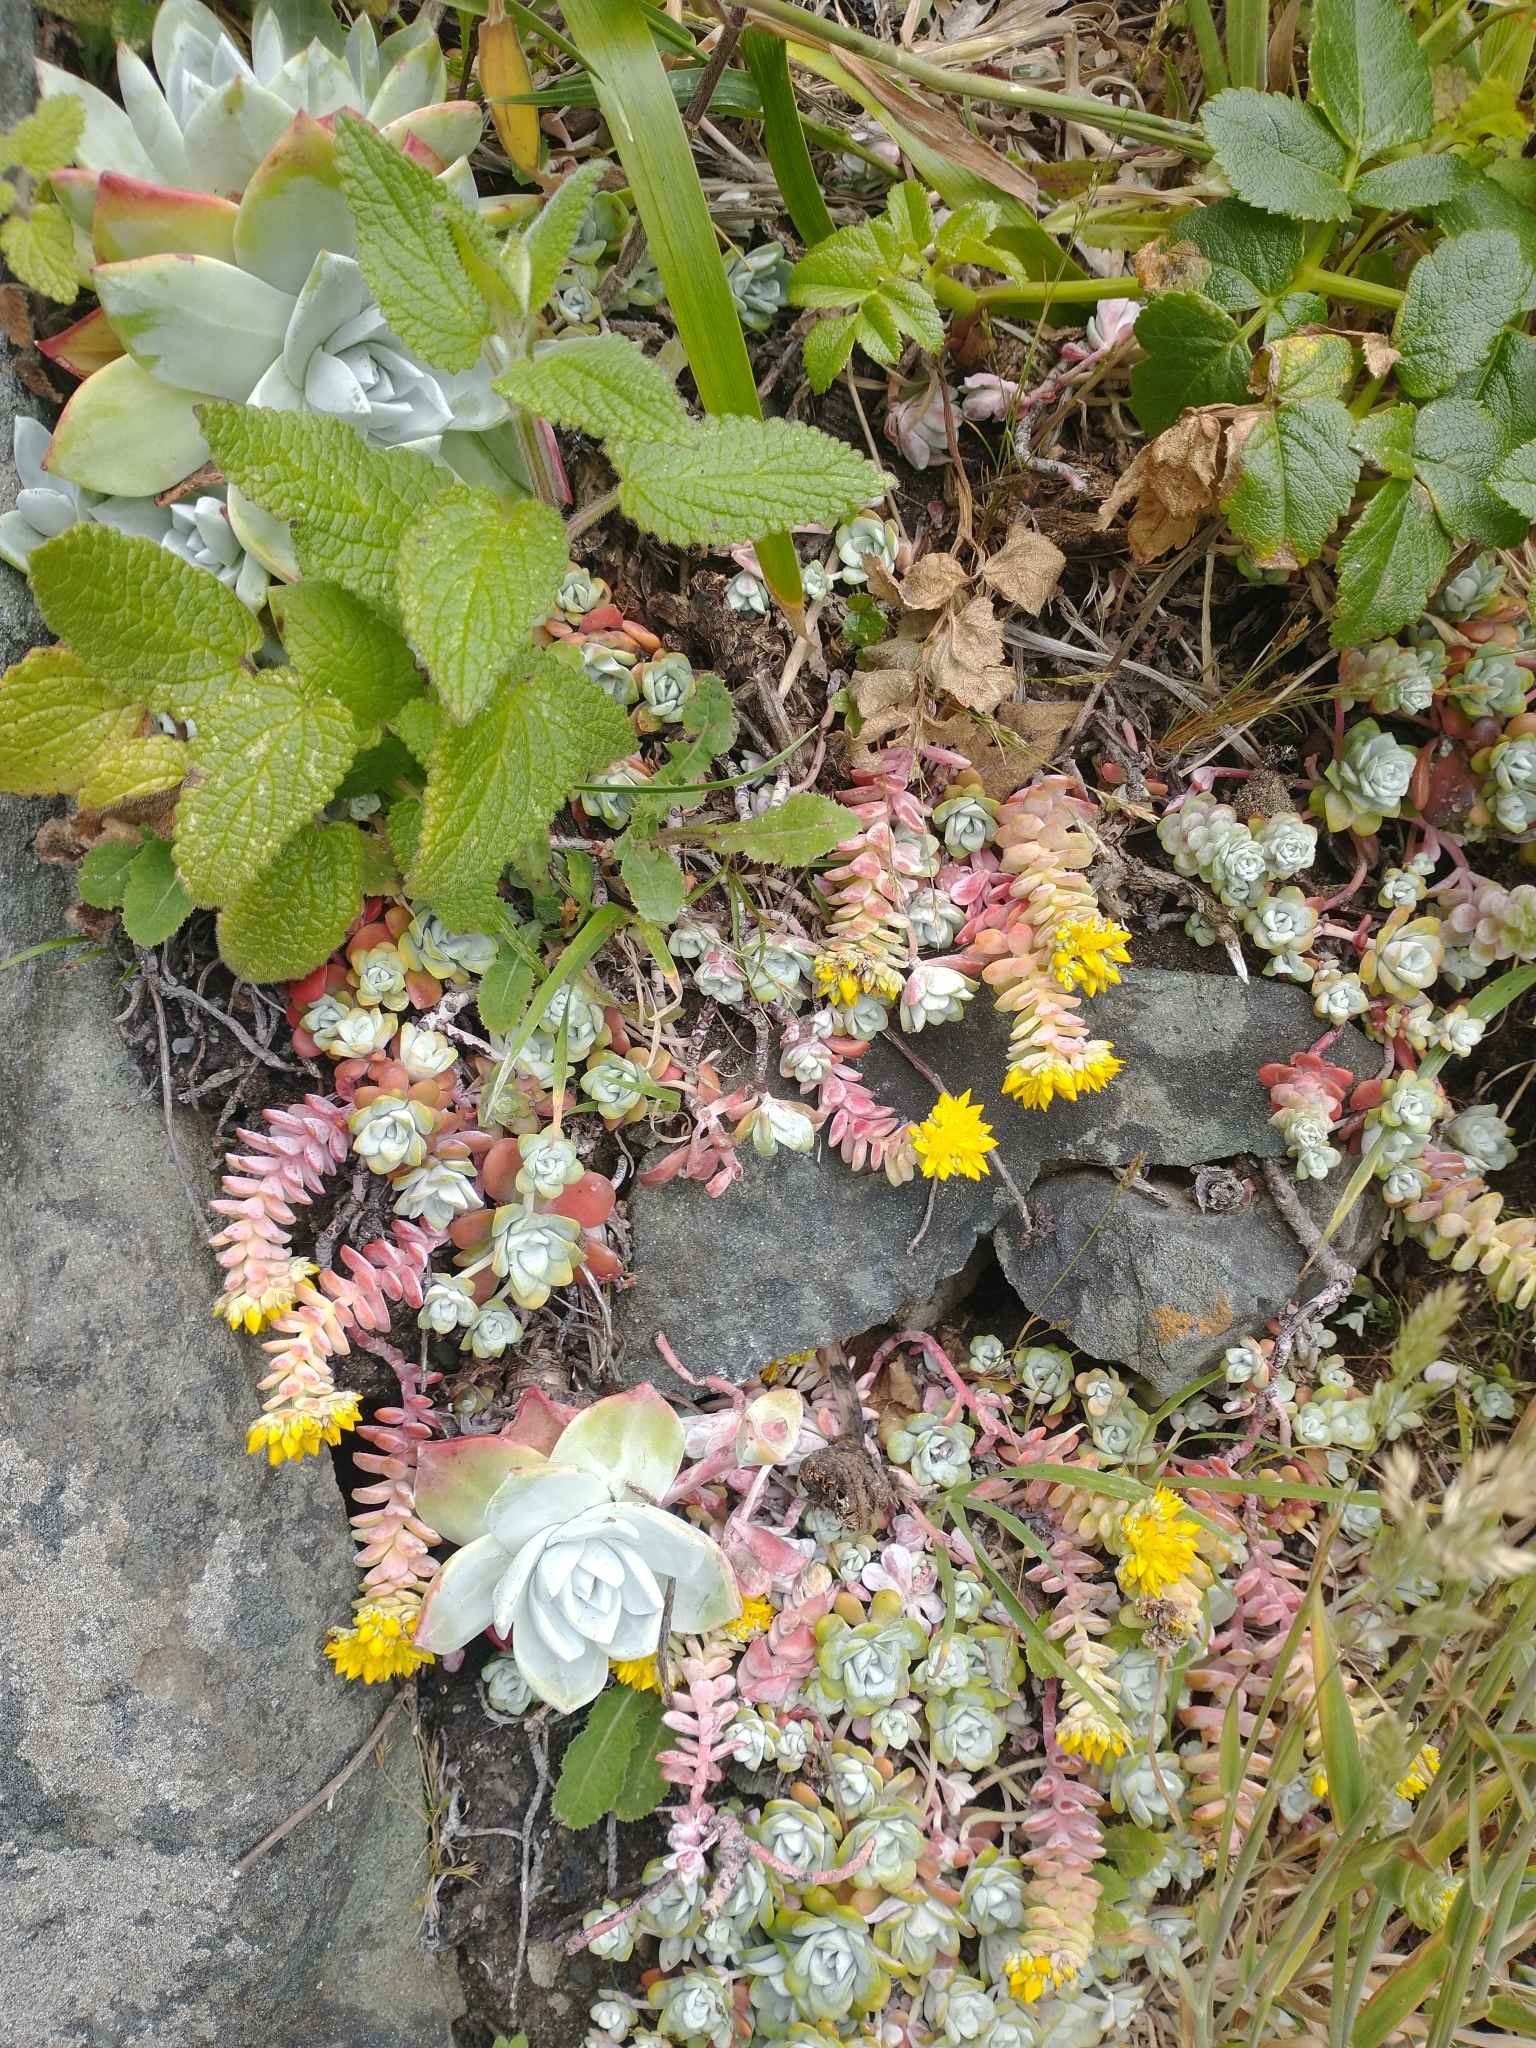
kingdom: Plantae
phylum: Tracheophyta
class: Magnoliopsida
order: Saxifragales
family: Crassulaceae
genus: Sedum
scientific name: Sedum spathulifolium
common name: Colorado stonecrop
